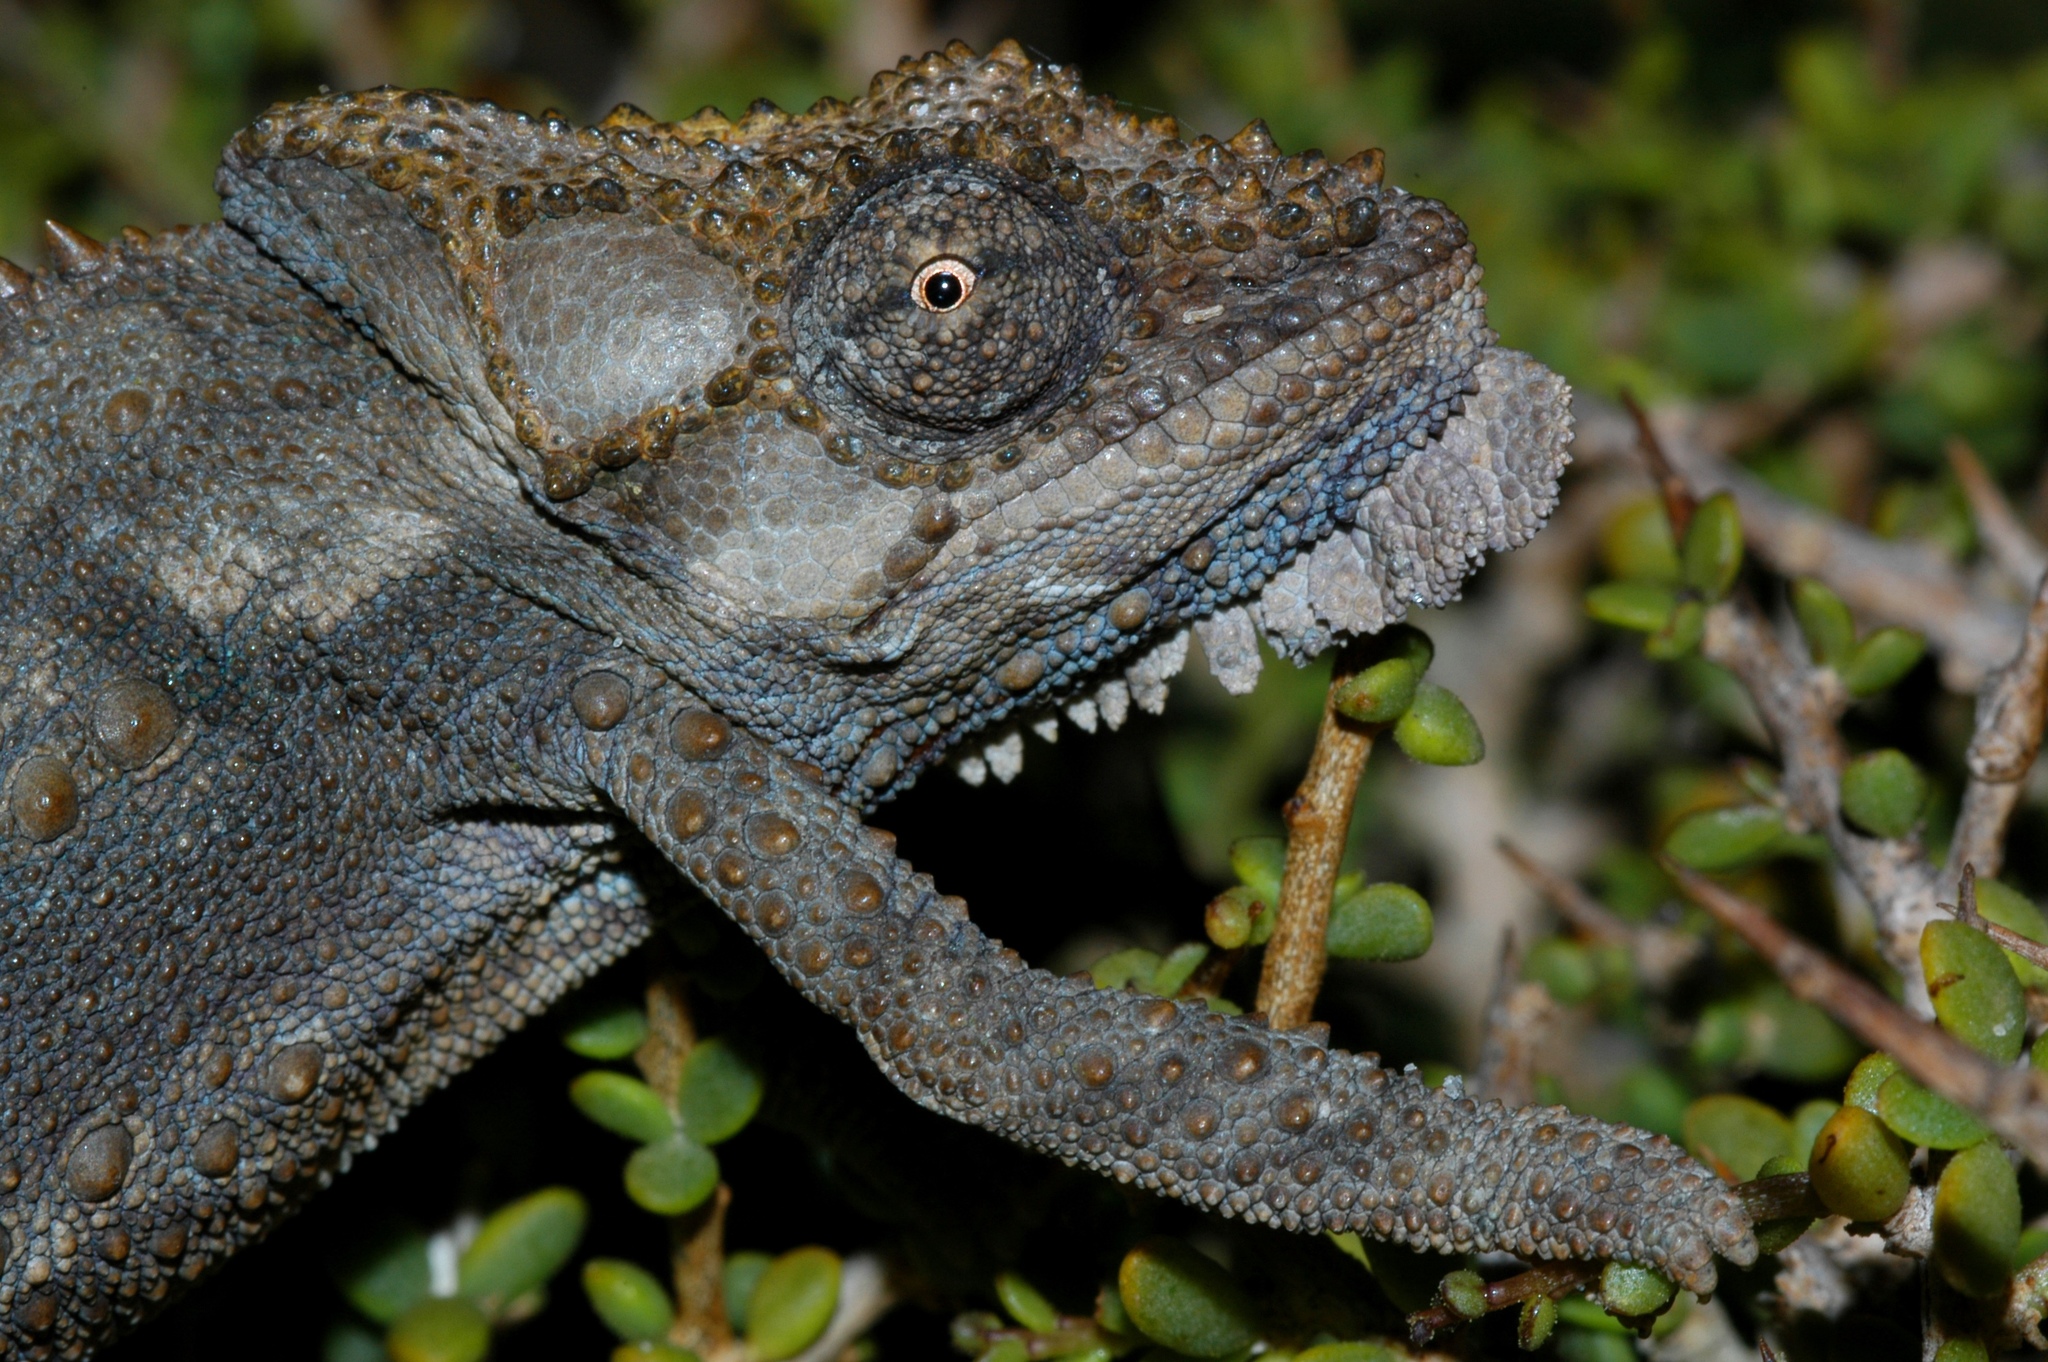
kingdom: Animalia
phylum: Chordata
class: Squamata
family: Chamaeleonidae
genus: Bradypodion
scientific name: Bradypodion occidentale
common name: Western dwarf chameleon
